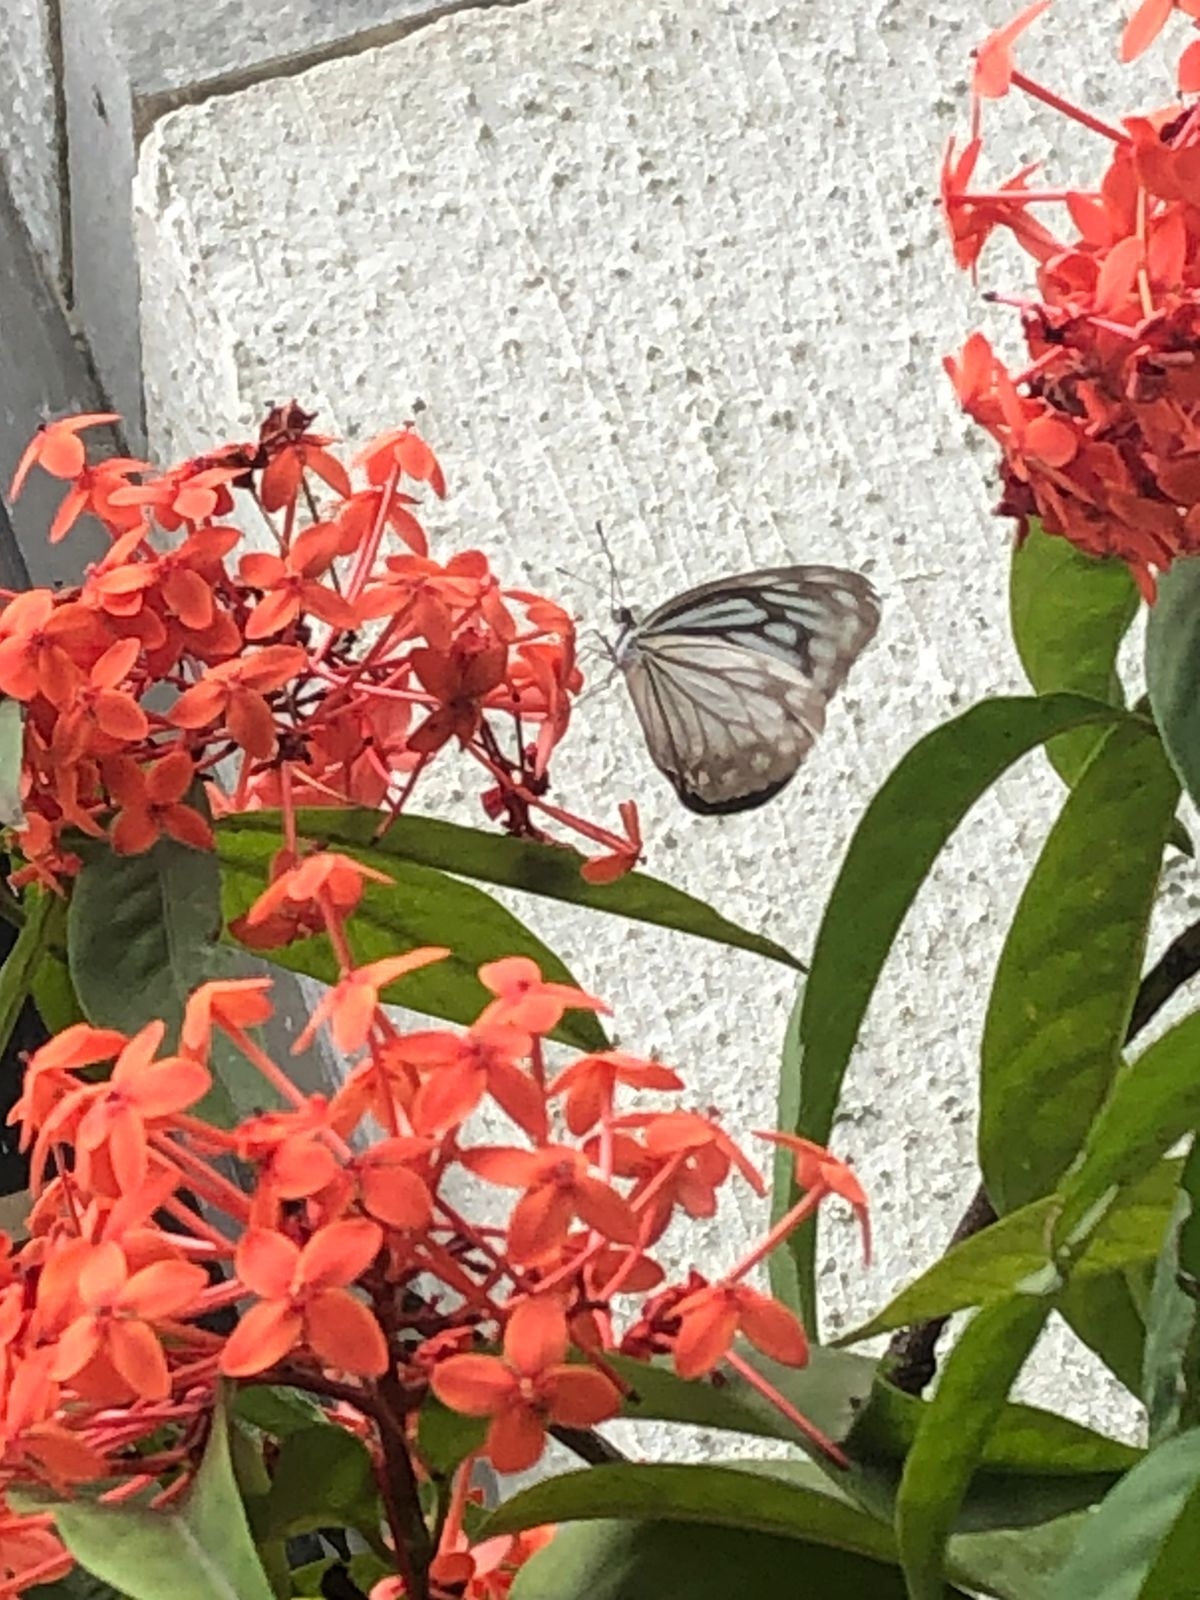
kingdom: Animalia
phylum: Arthropoda
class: Insecta
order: Lepidoptera
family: Pieridae
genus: Pareronia
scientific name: Pareronia hippia
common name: Indian wanderer
